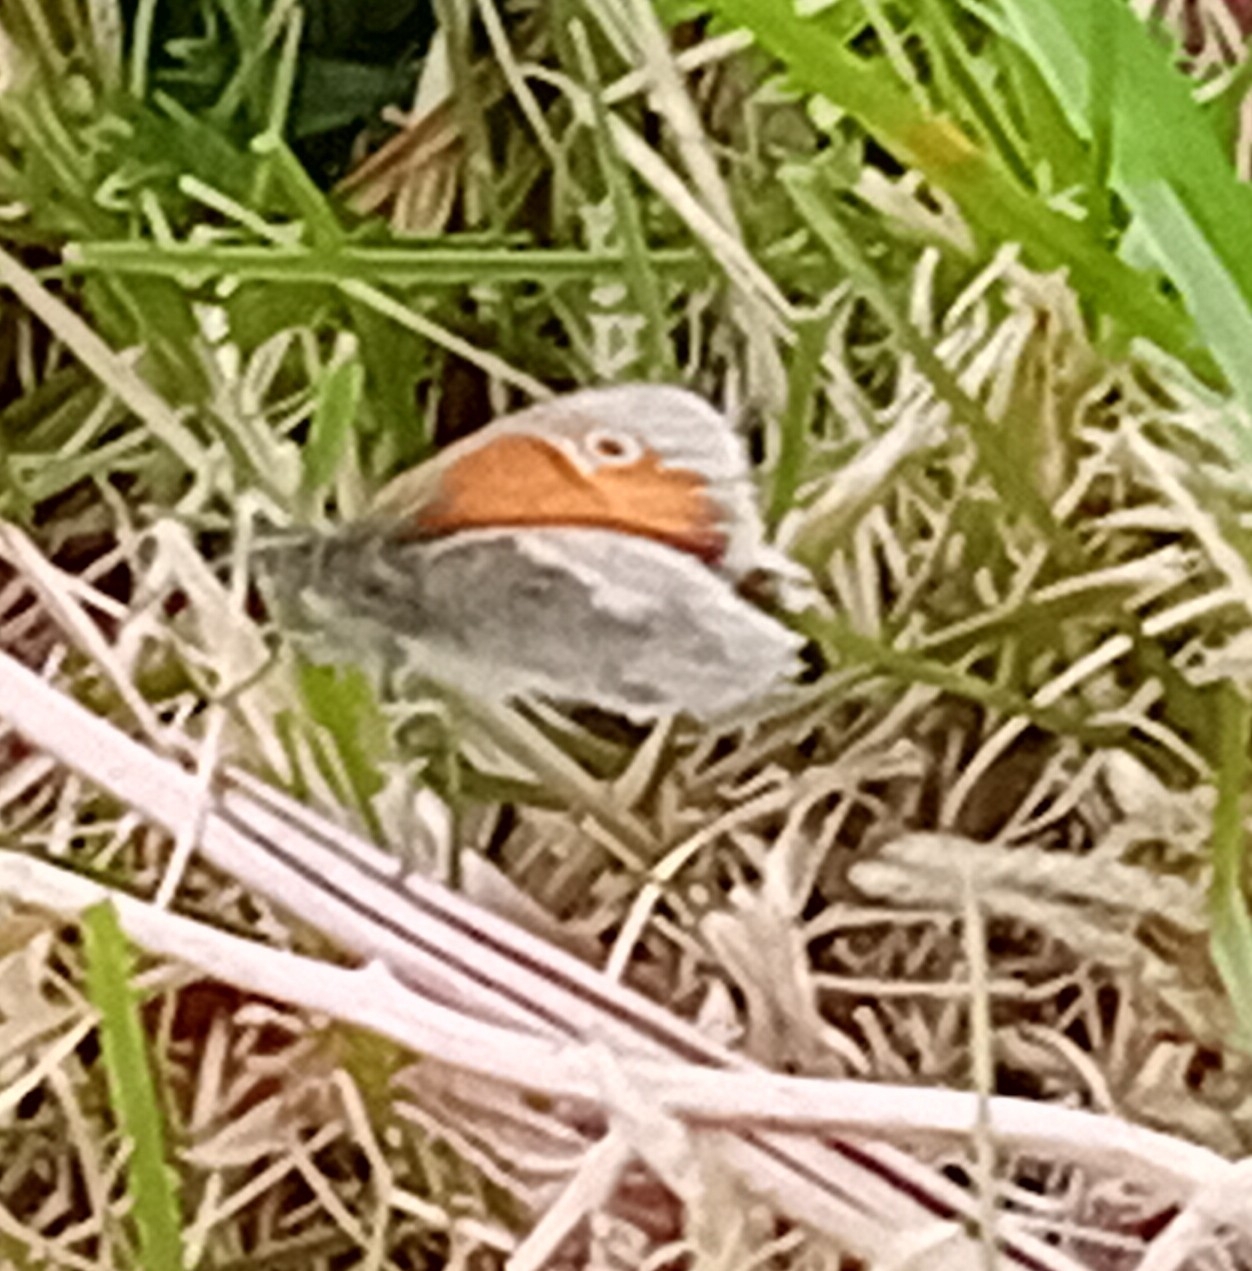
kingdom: Animalia
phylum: Arthropoda
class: Insecta
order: Lepidoptera
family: Nymphalidae
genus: Coenonympha
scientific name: Coenonympha pamphilus
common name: Small heath
